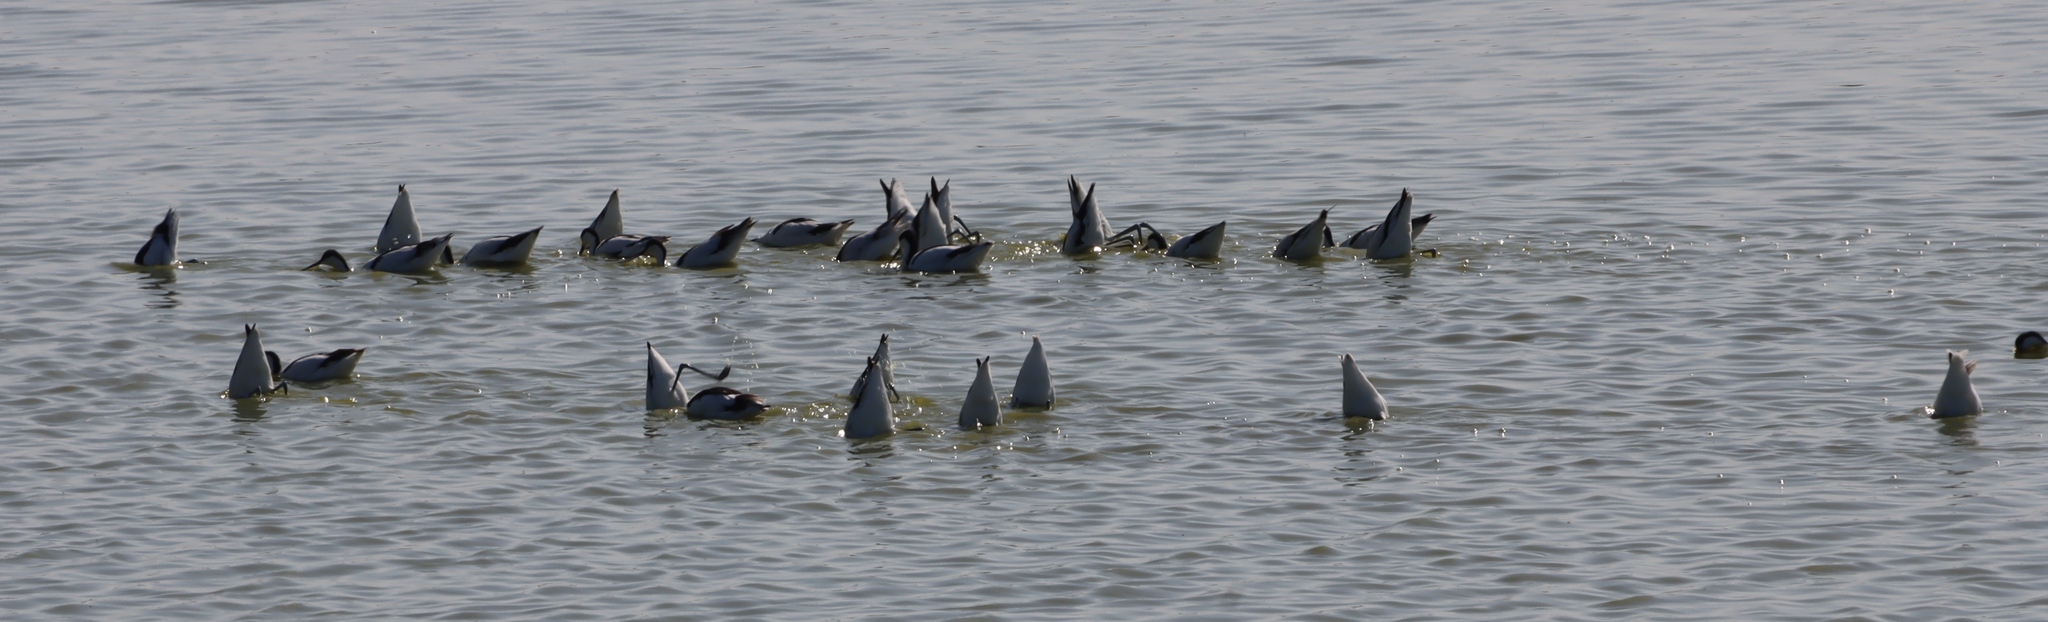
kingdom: Animalia
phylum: Chordata
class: Aves
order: Charadriiformes
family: Recurvirostridae
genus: Recurvirostra
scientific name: Recurvirostra avosetta
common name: Pied avocet
